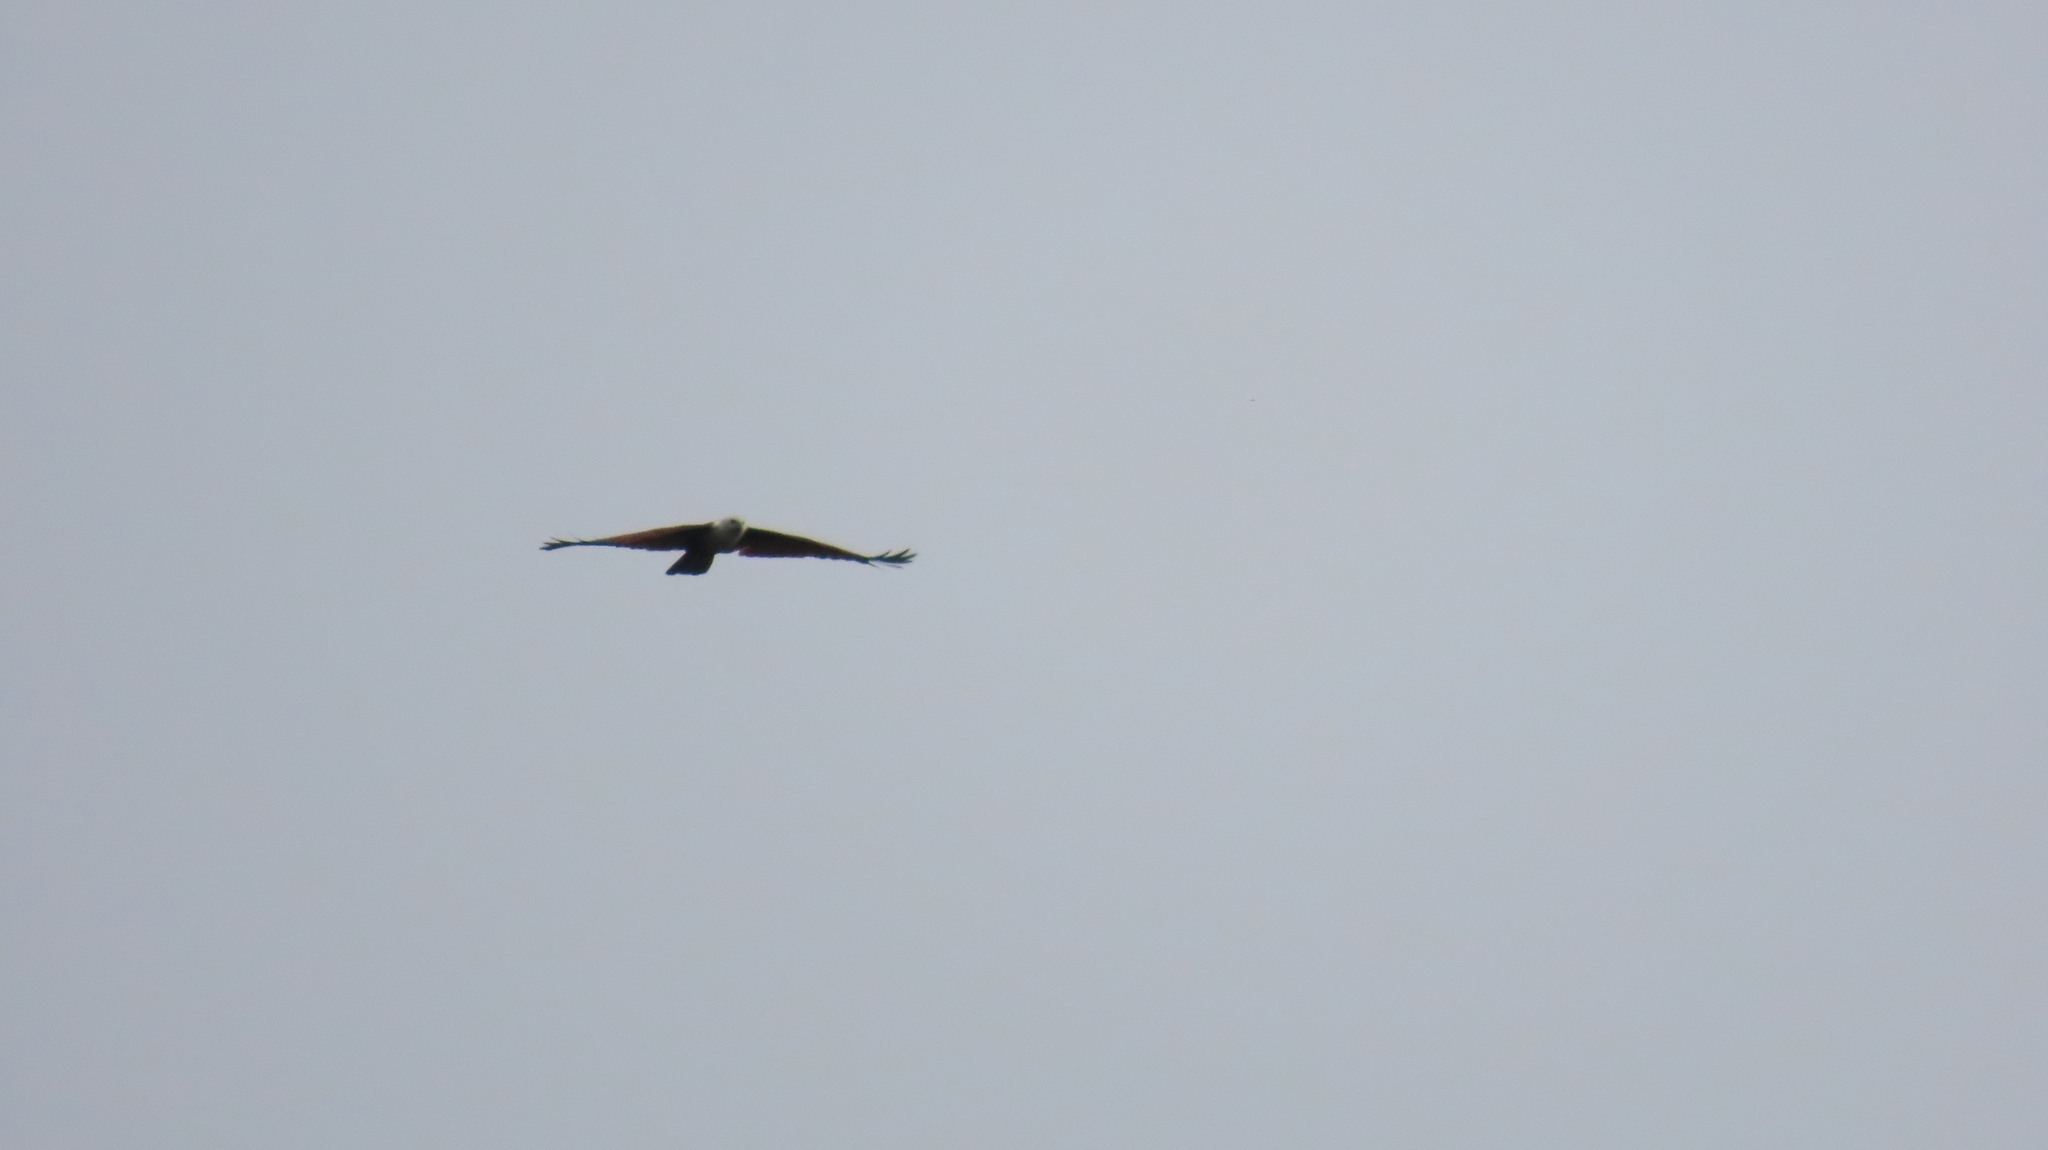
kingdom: Animalia
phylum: Chordata
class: Aves
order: Accipitriformes
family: Accipitridae
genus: Haliastur
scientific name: Haliastur indus
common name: Brahminy kite
